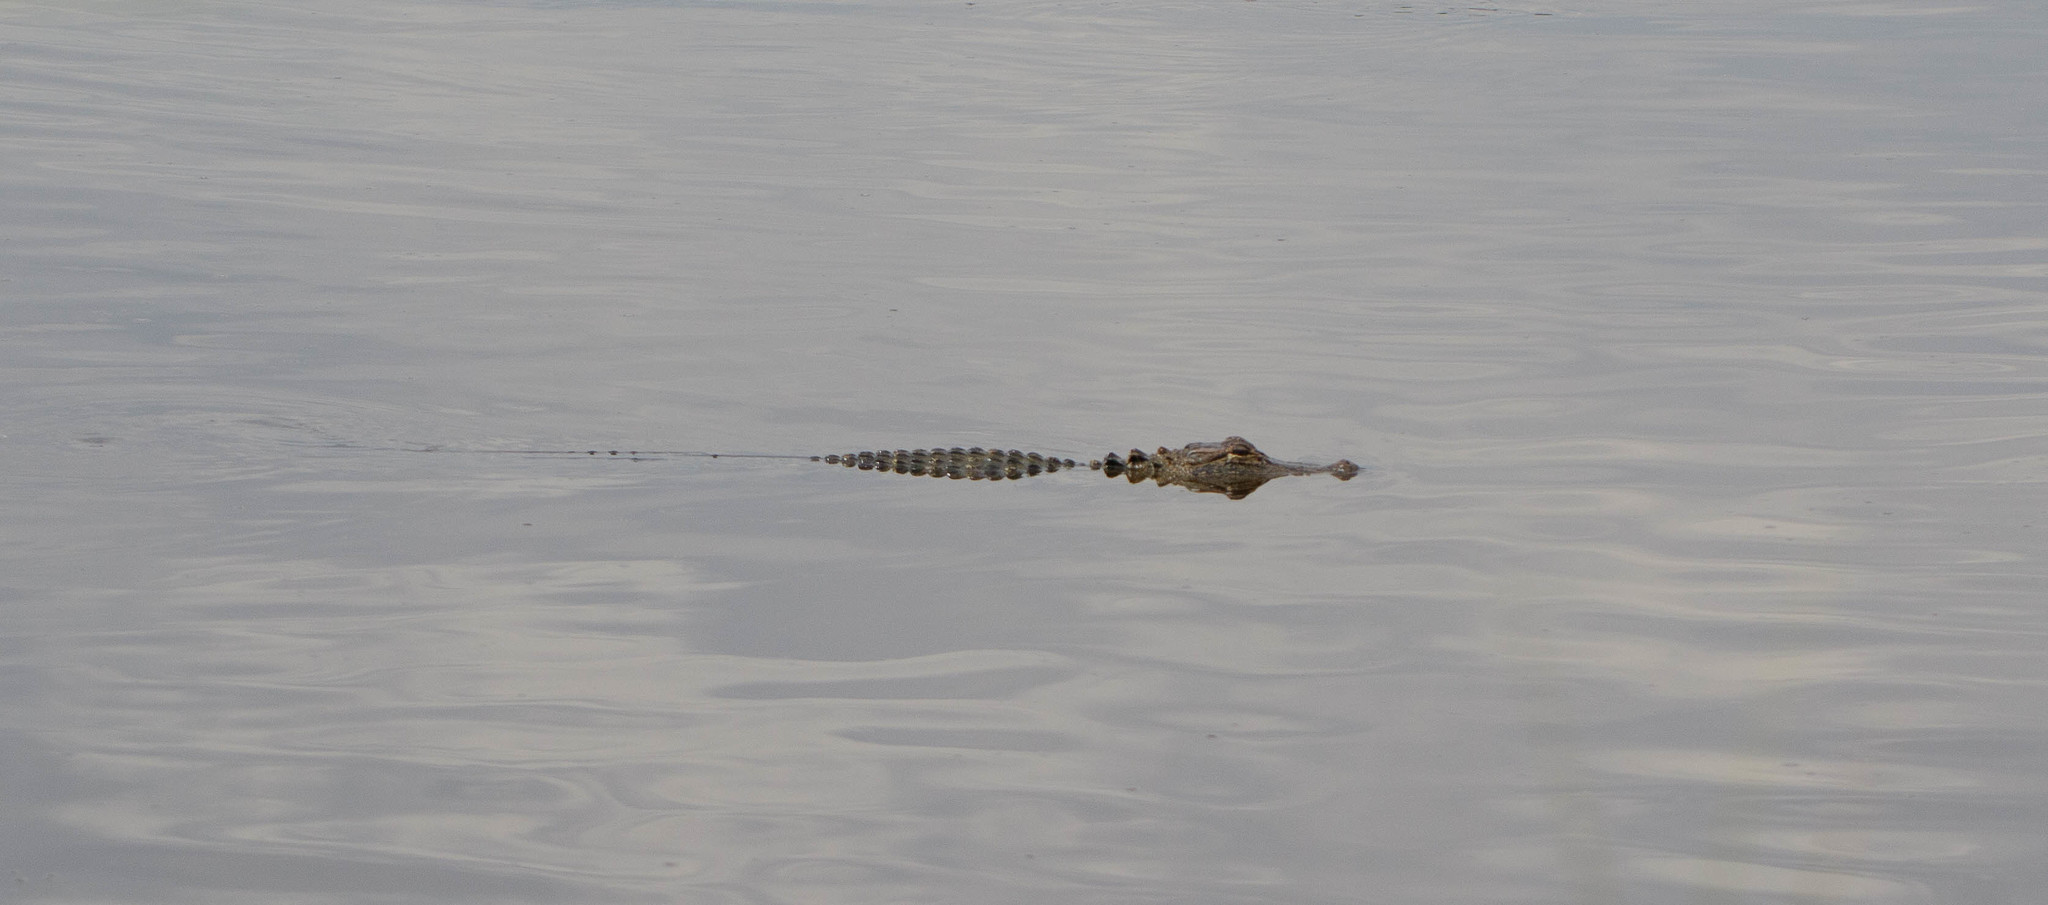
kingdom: Animalia
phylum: Chordata
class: Crocodylia
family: Alligatoridae
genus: Alligator
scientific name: Alligator mississippiensis
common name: American alligator
